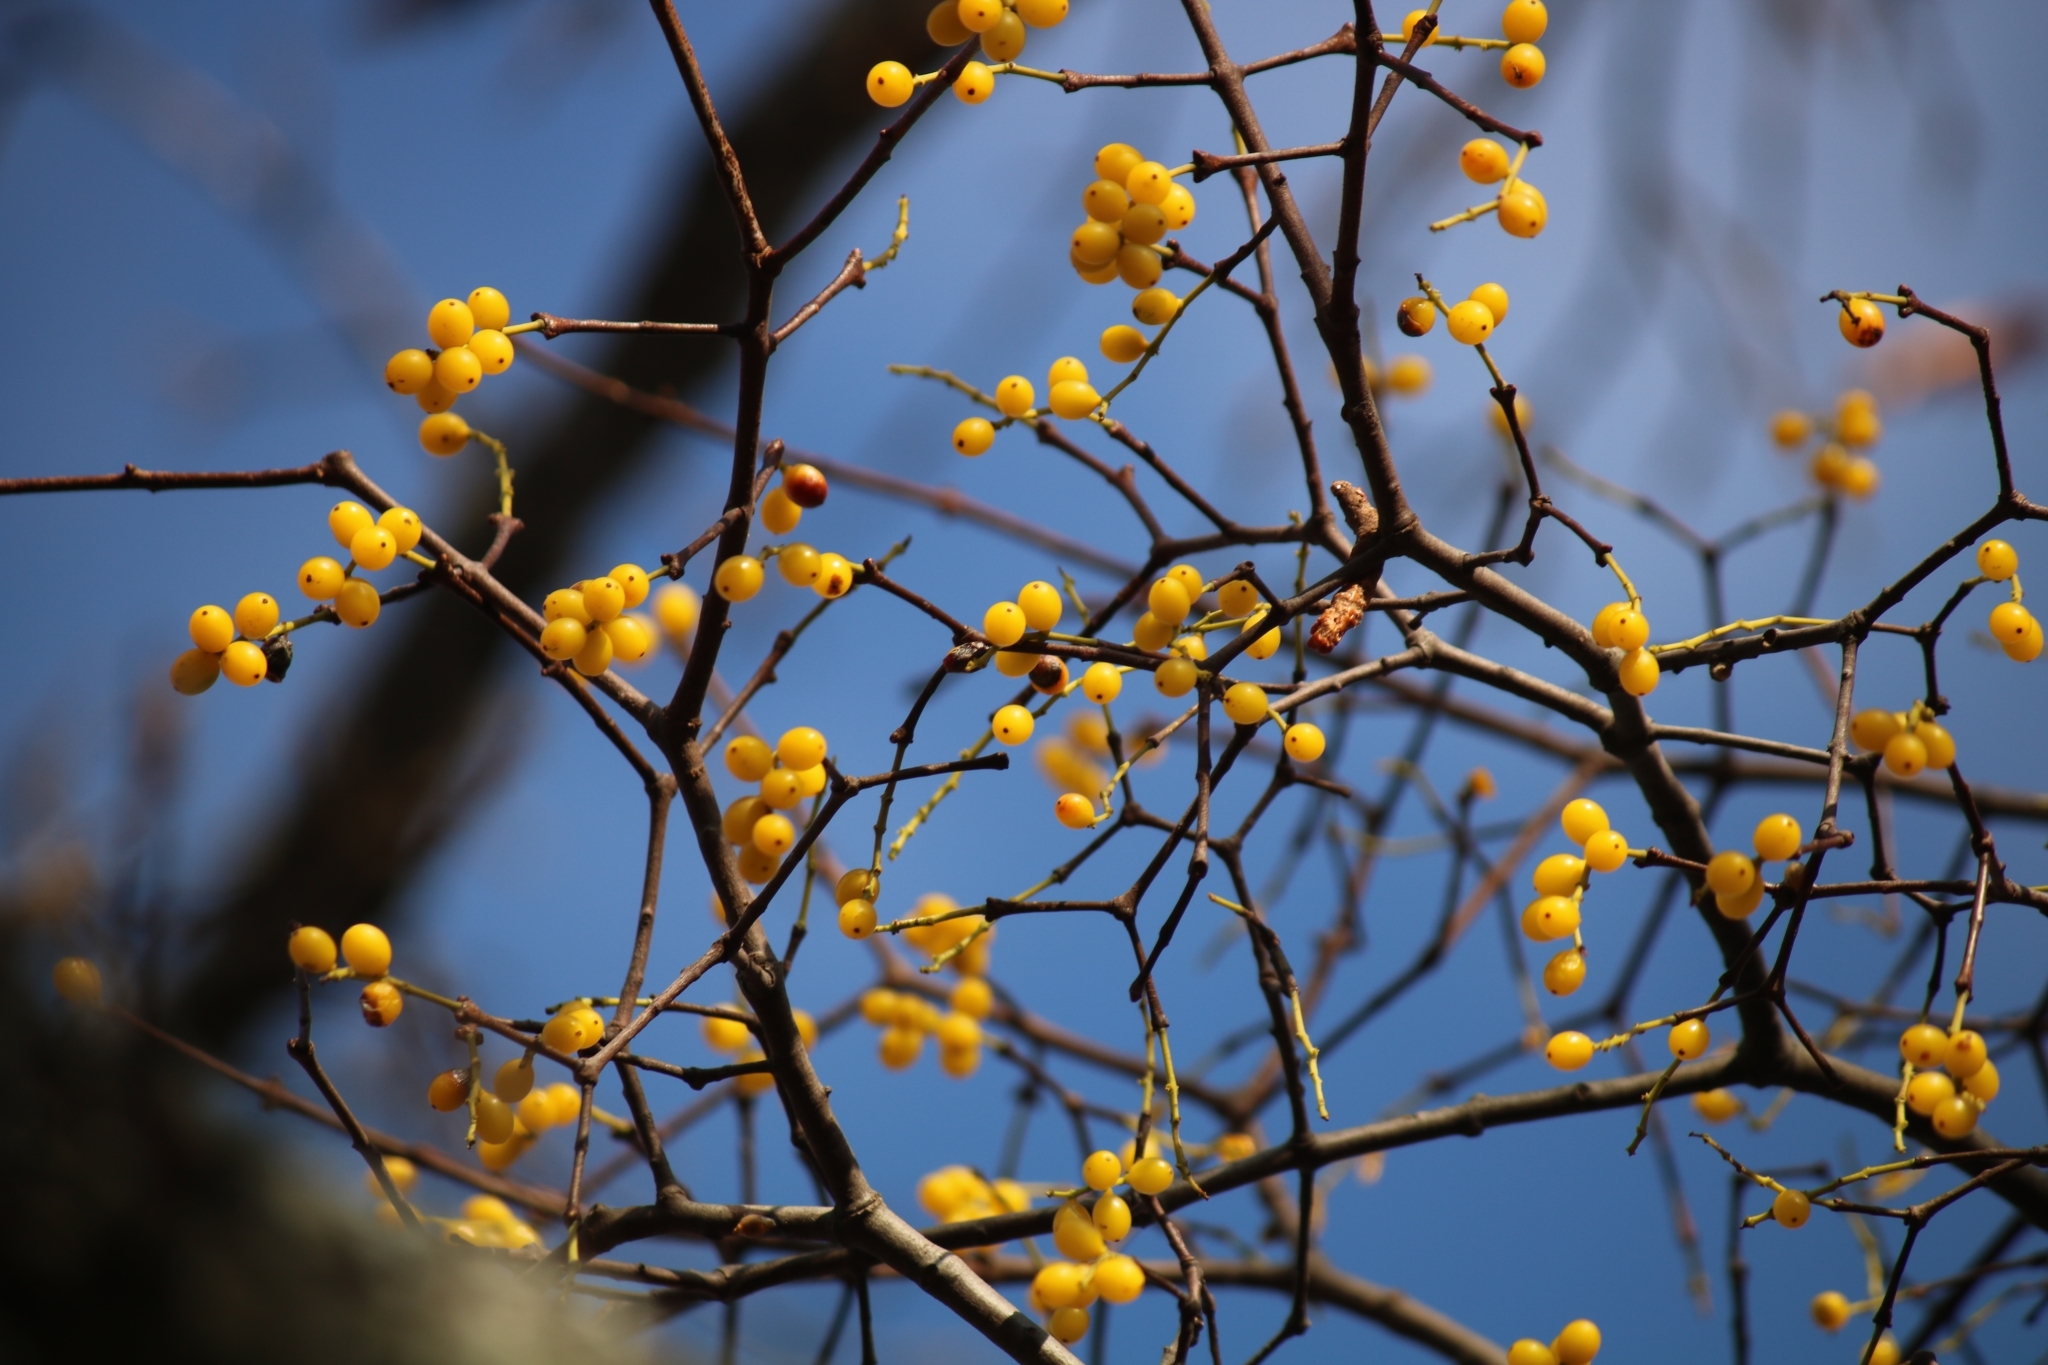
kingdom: Plantae
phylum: Tracheophyta
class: Magnoliopsida
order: Santalales
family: Loranthaceae
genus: Loranthus
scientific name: Loranthus europaeus
